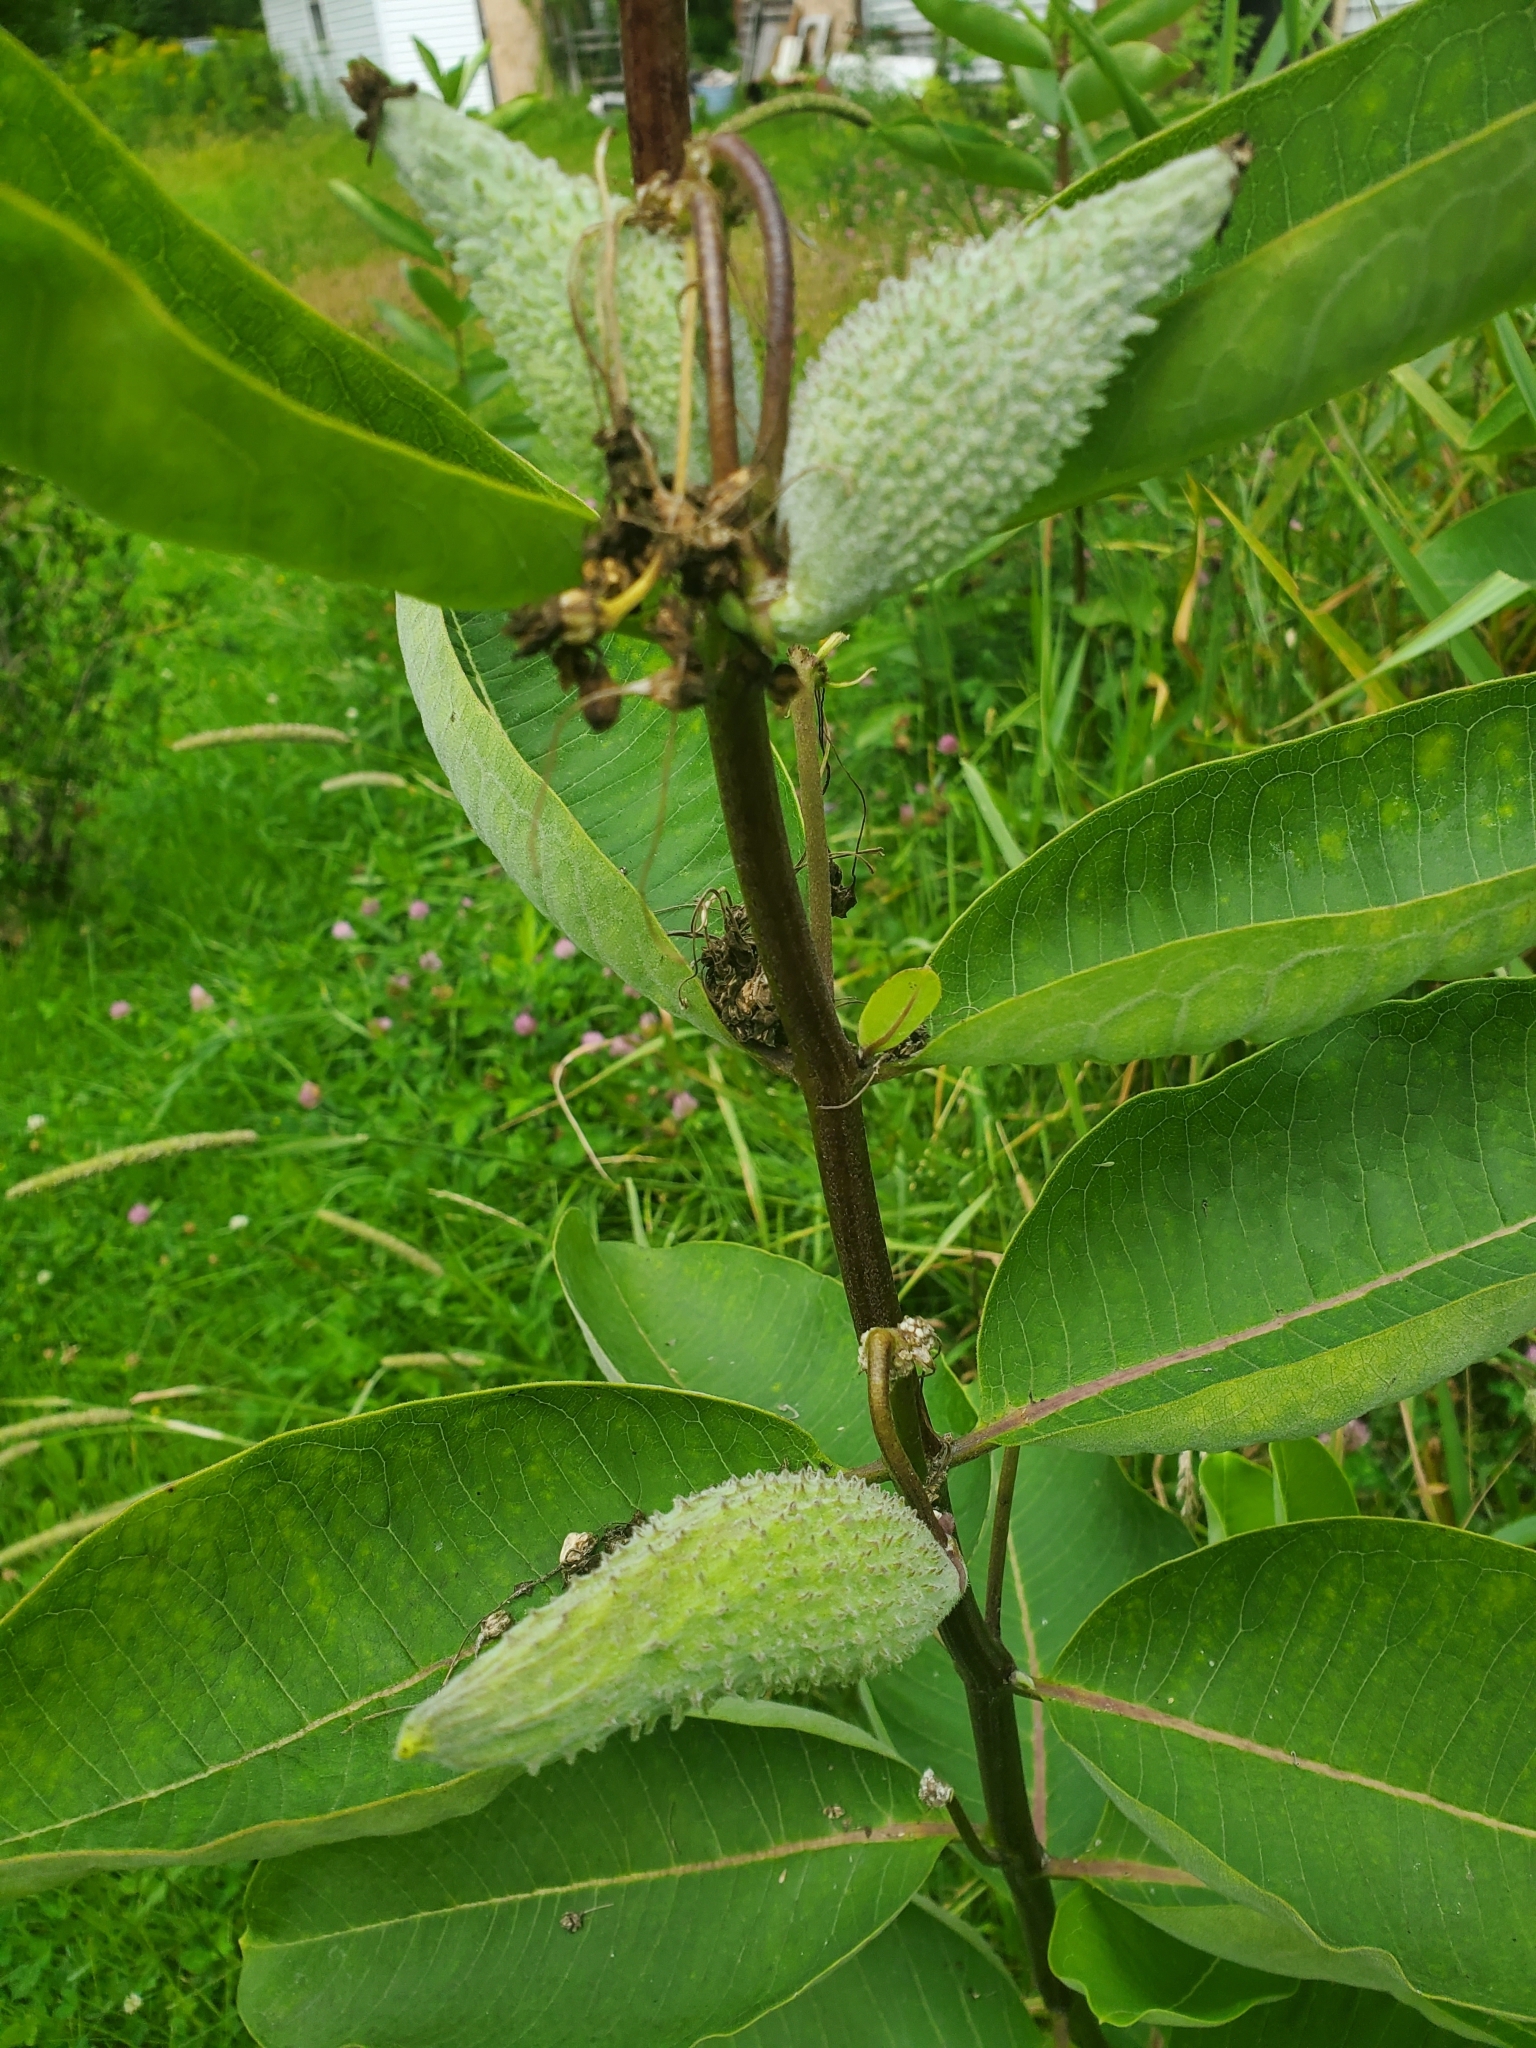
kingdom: Plantae
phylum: Tracheophyta
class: Magnoliopsida
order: Gentianales
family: Apocynaceae
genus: Asclepias
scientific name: Asclepias syriaca
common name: Common milkweed
